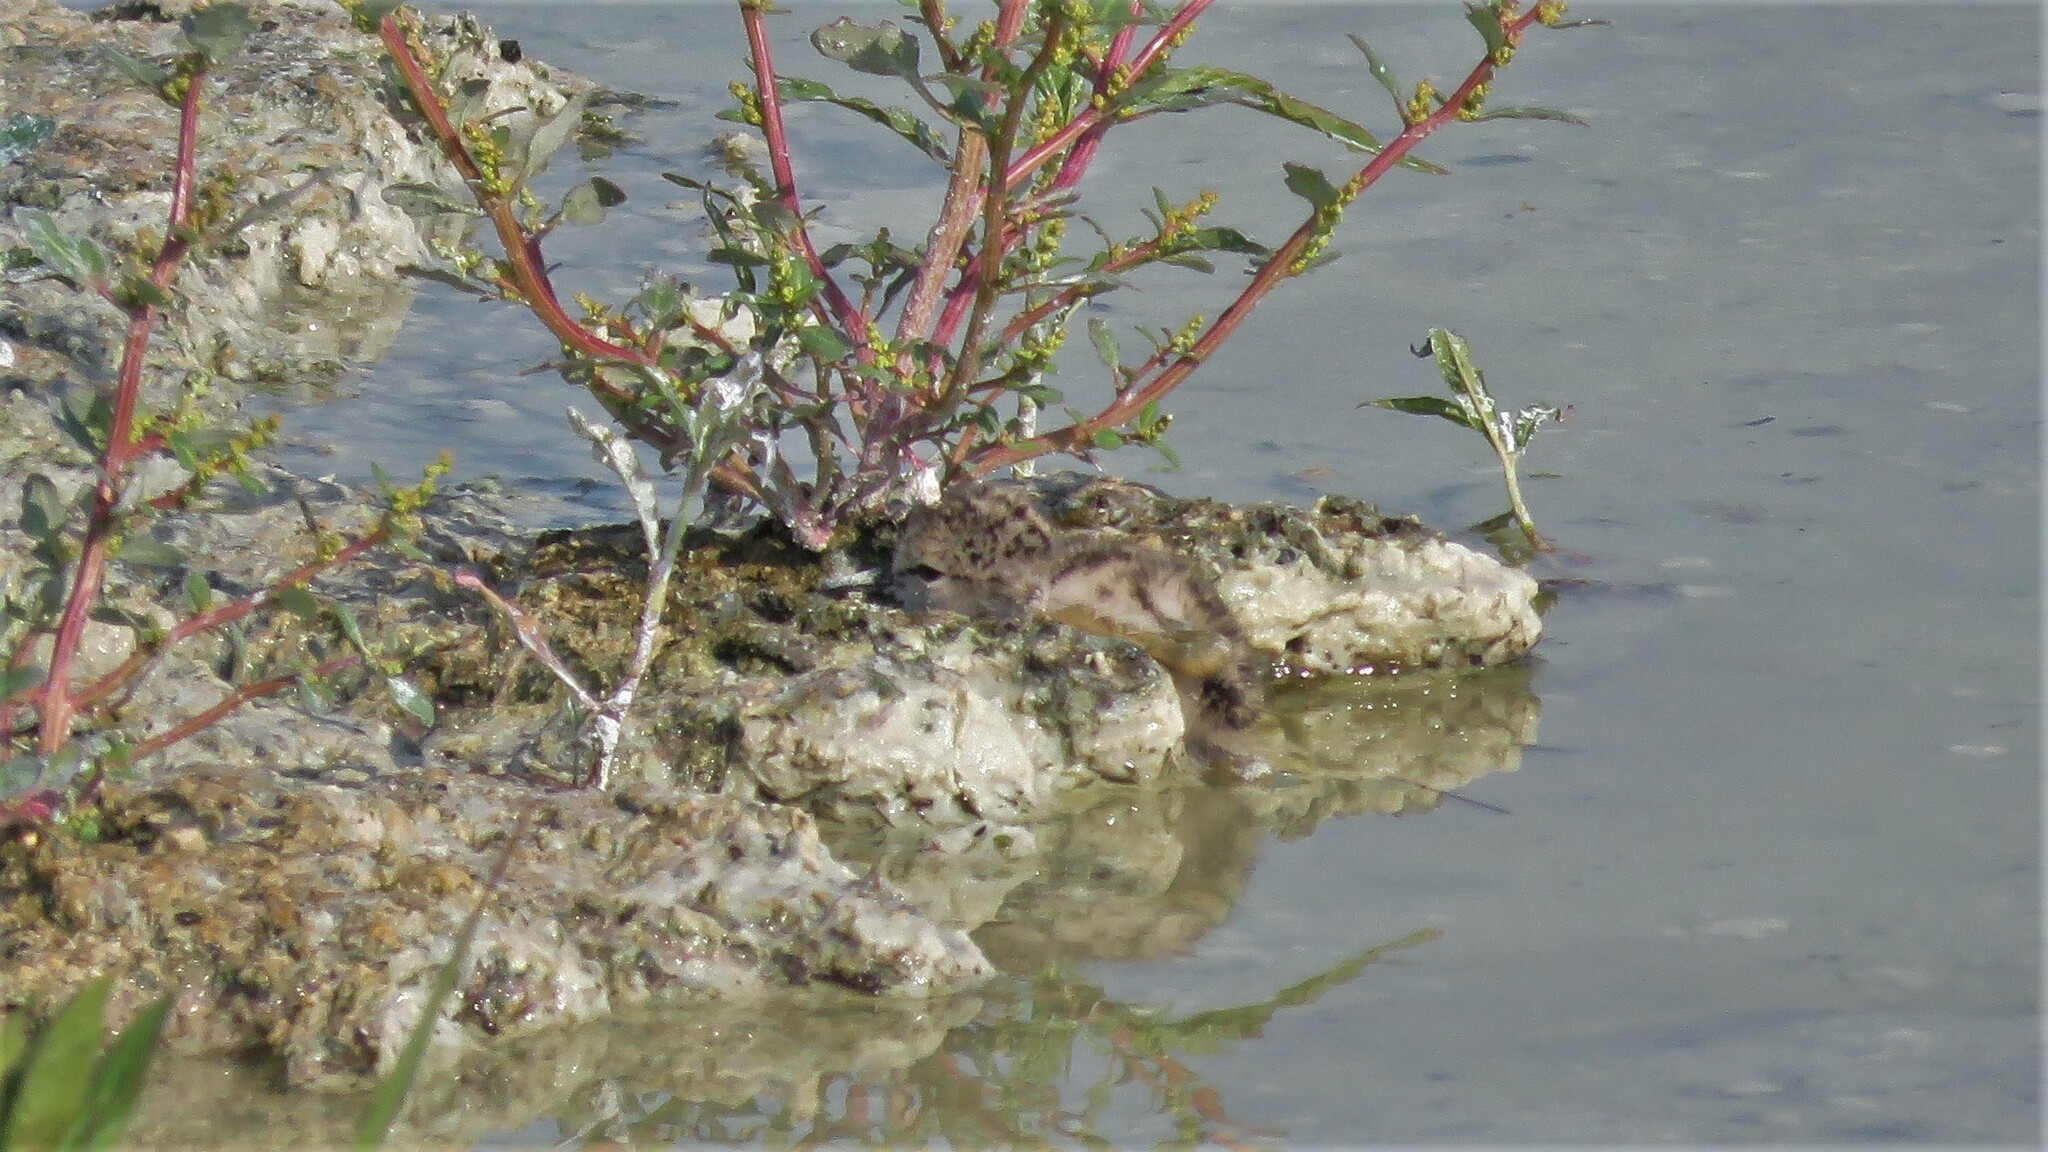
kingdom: Animalia
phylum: Chordata
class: Aves
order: Charadriiformes
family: Recurvirostridae
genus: Himantopus
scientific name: Himantopus mexicanus
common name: Black-necked stilt
